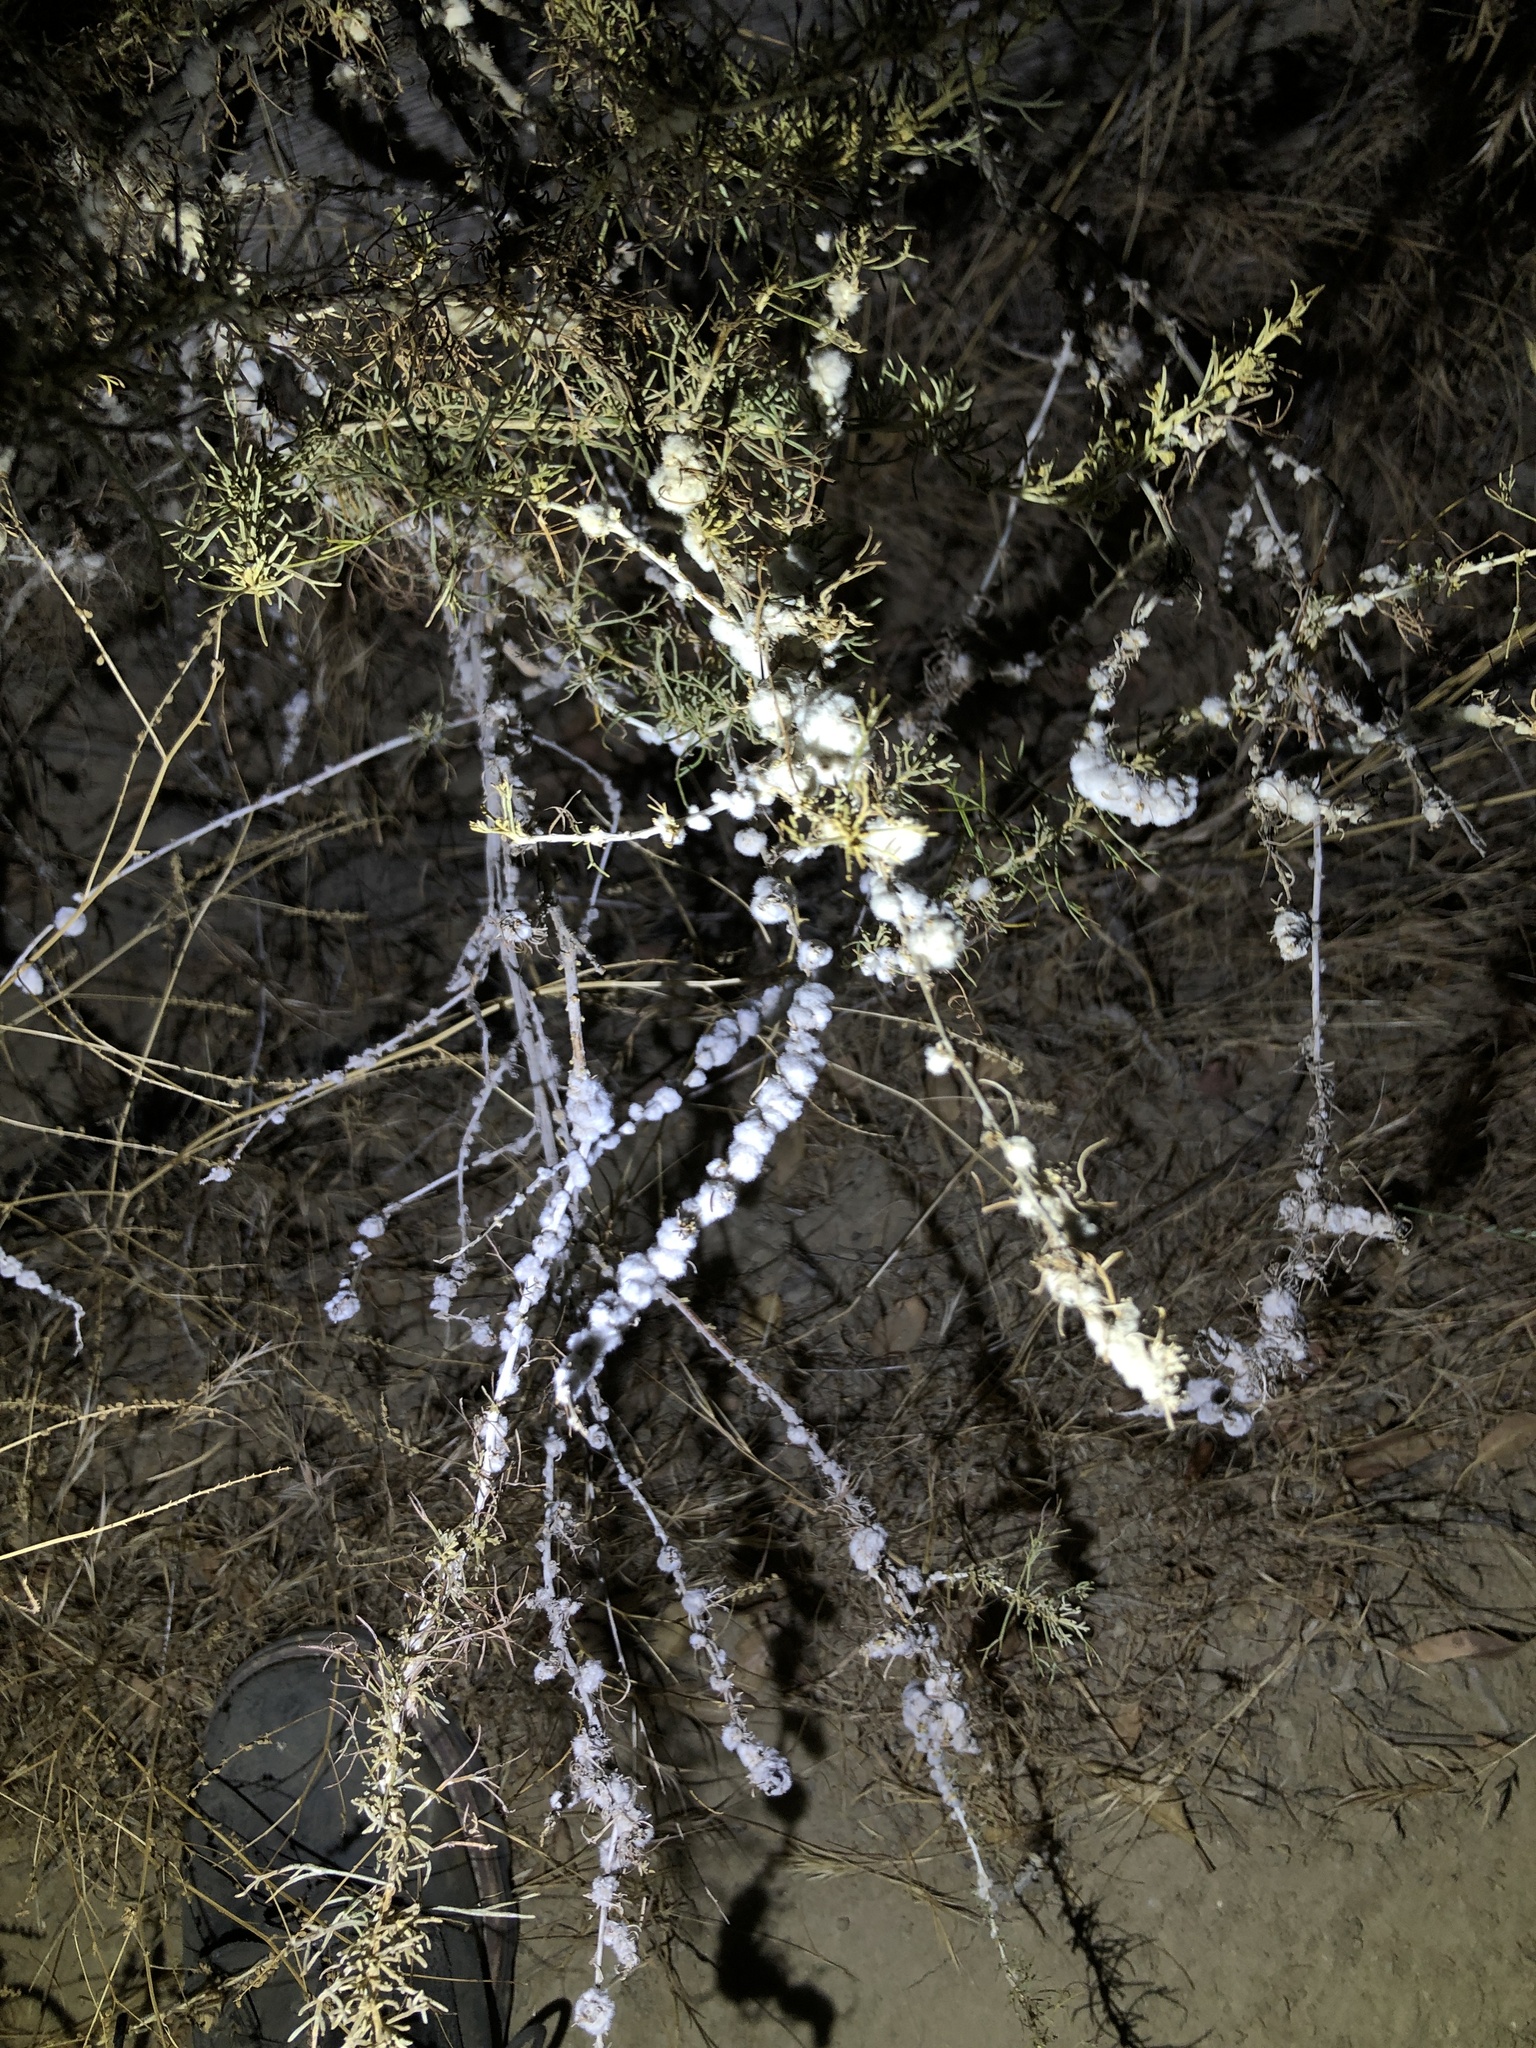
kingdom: Animalia
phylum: Arthropoda
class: Insecta
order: Diptera
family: Cecidomyiidae
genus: Rhopalomyia
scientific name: Rhopalomyia floccosa
